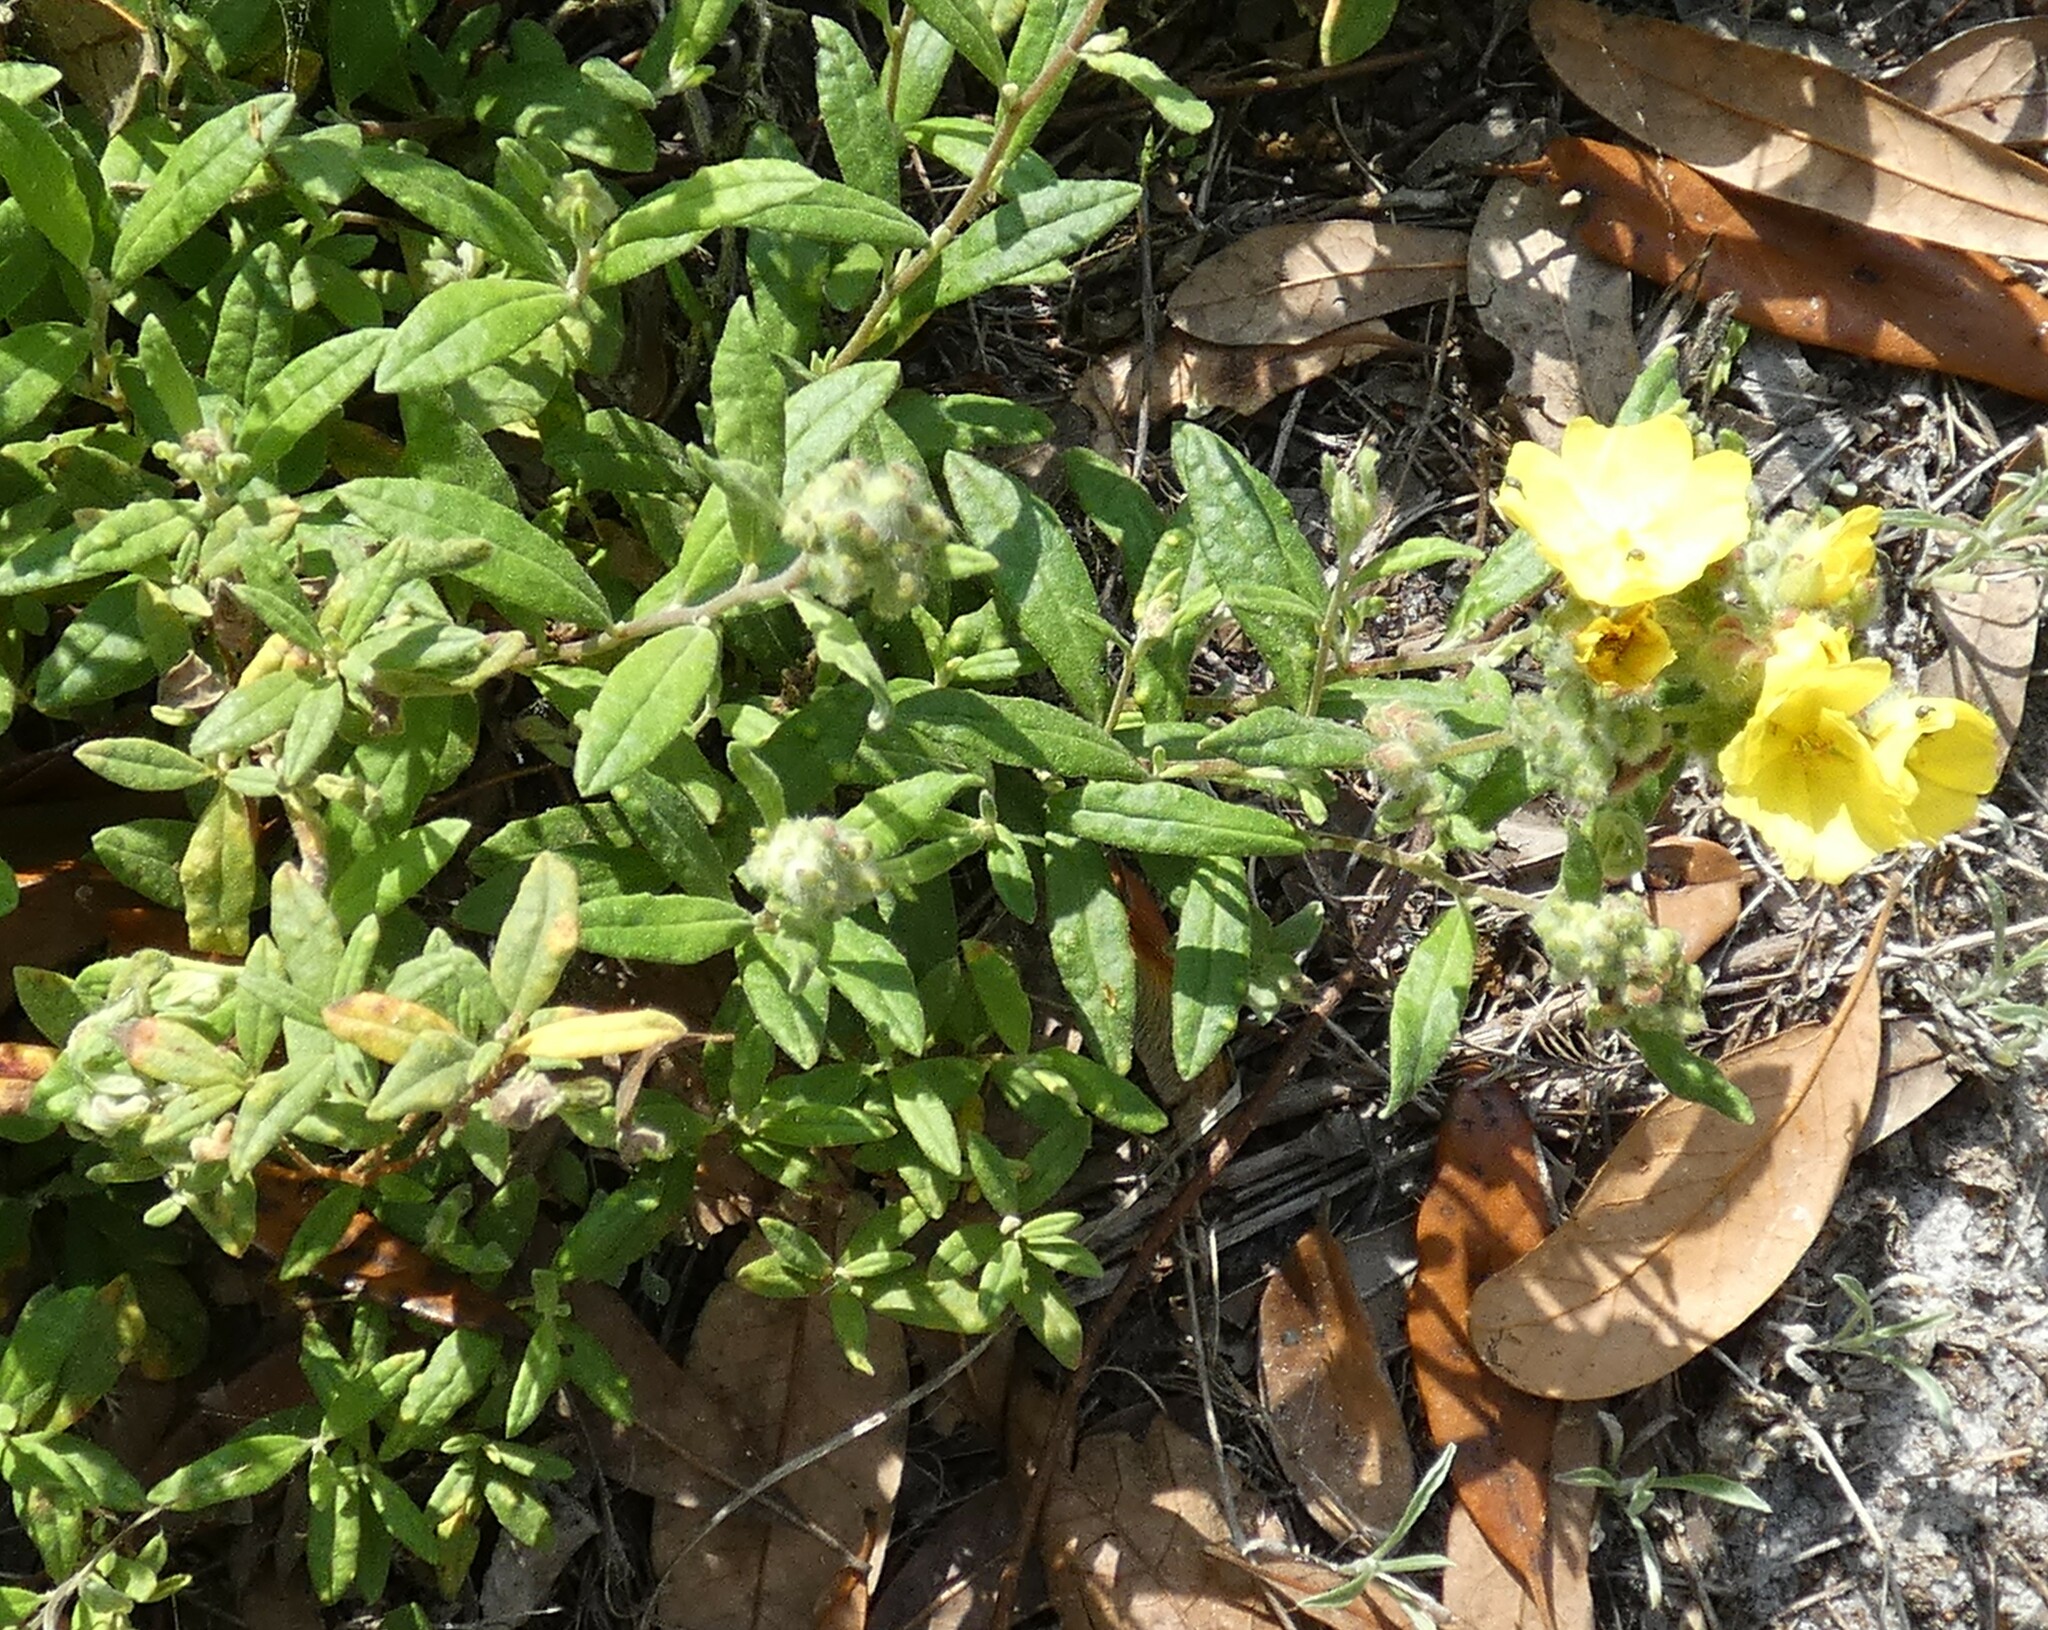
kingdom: Plantae
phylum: Tracheophyta
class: Magnoliopsida
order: Malvales
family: Cistaceae
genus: Crocanthemum
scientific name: Crocanthemum corymbosum
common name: Pinebarren sun-rose
